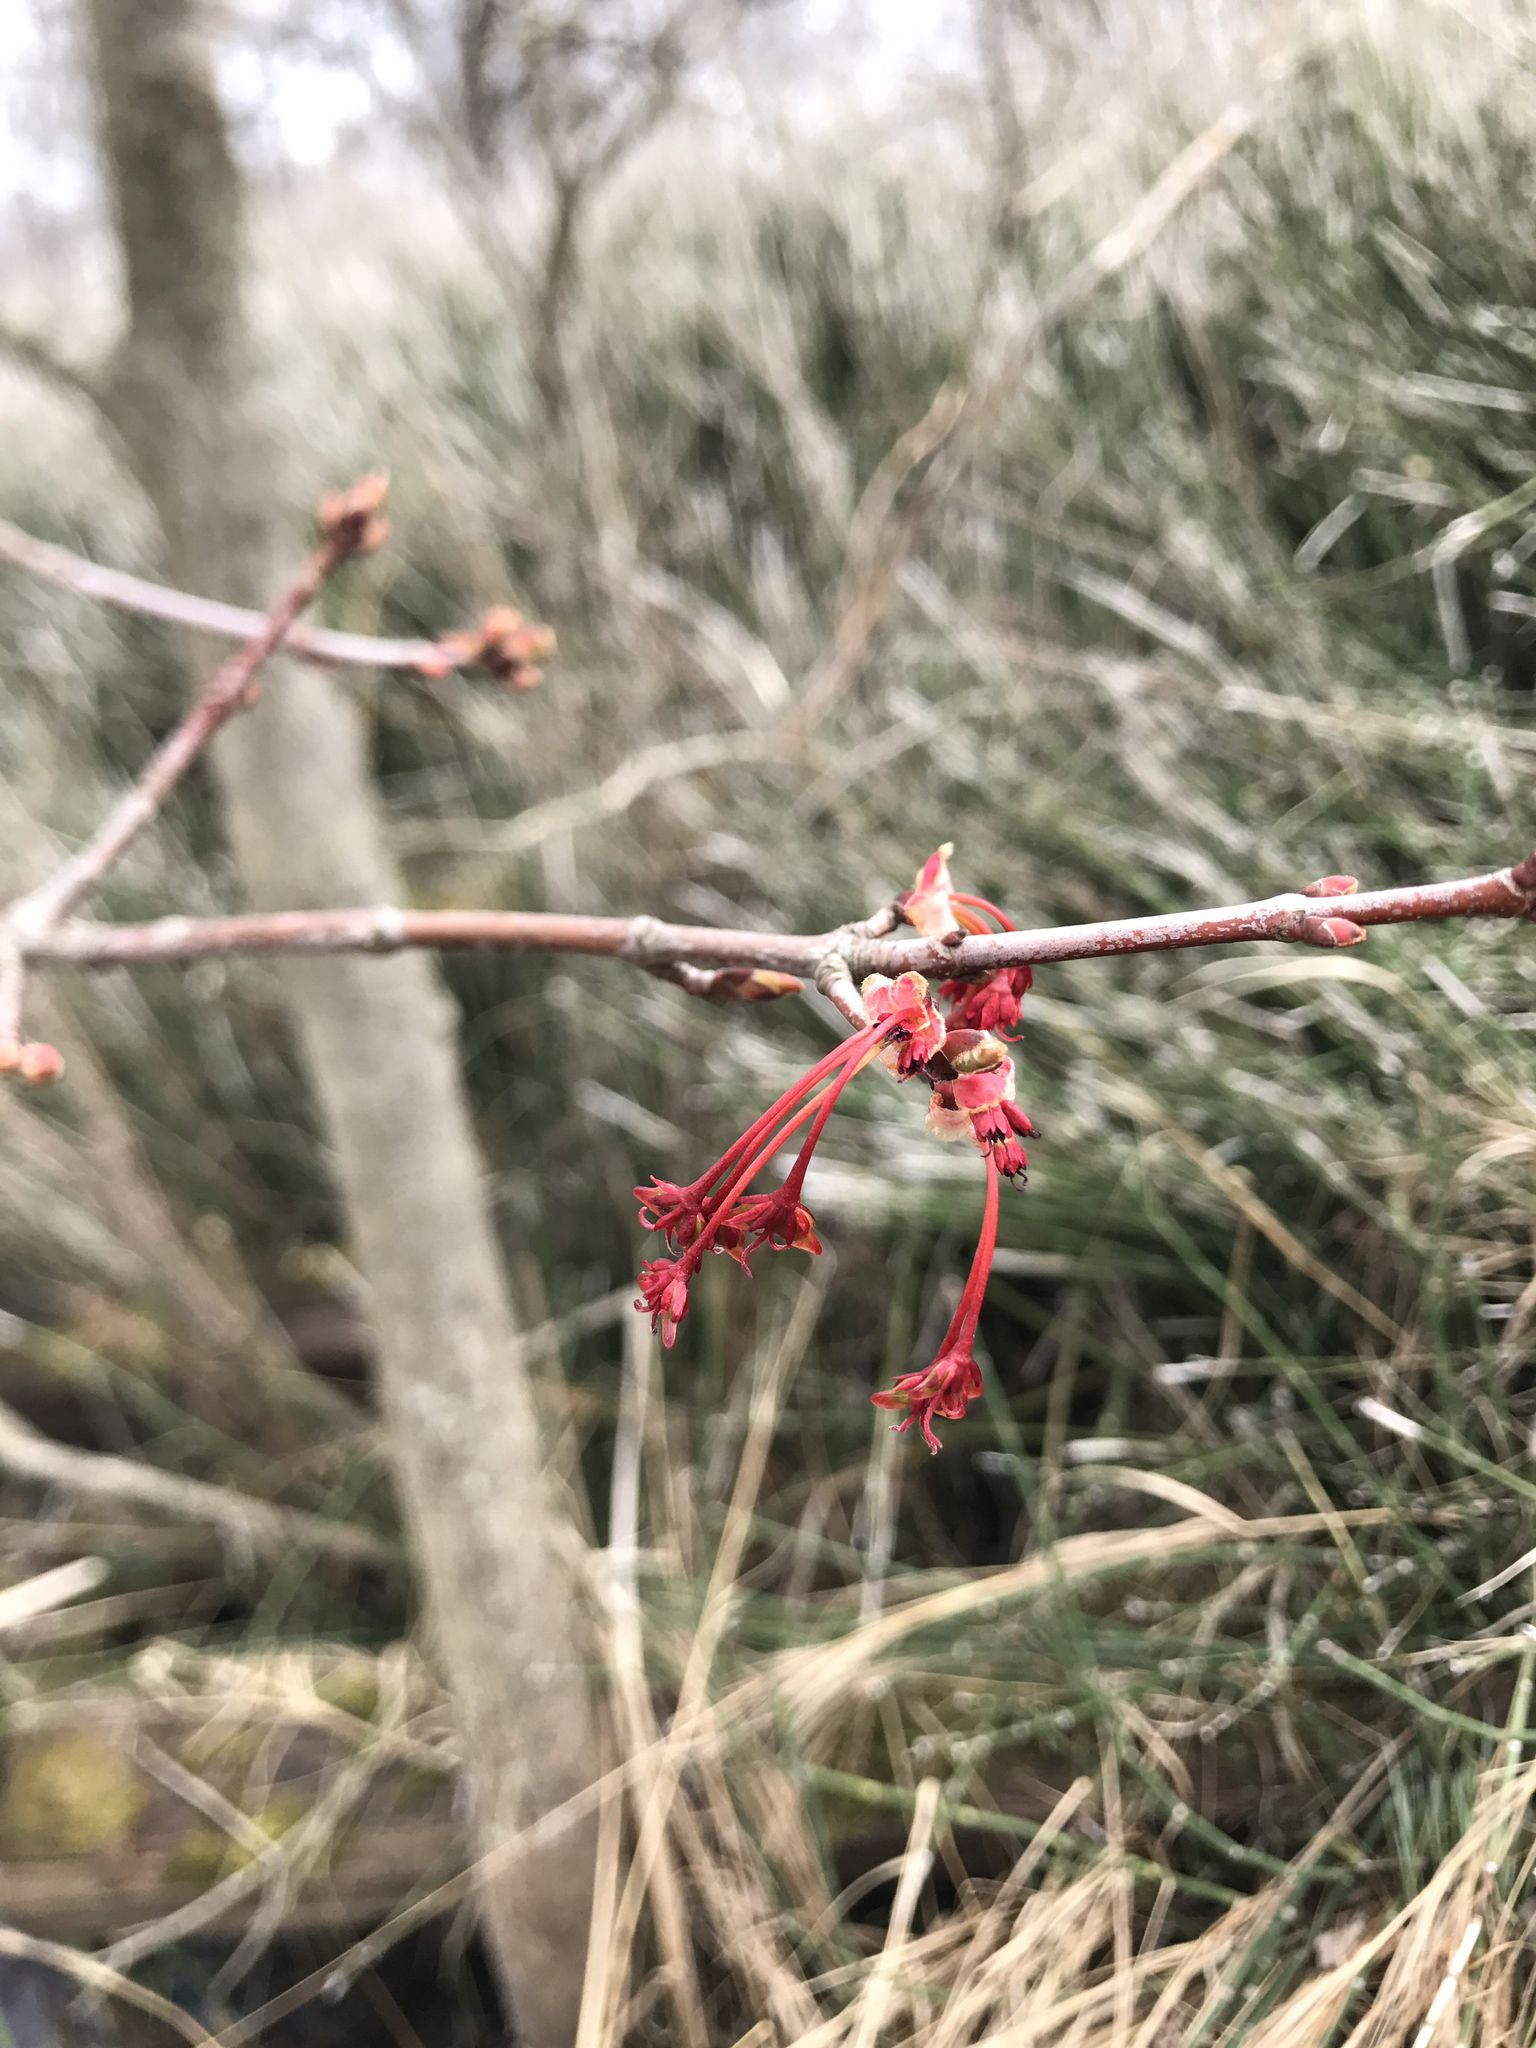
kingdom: Plantae
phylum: Tracheophyta
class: Magnoliopsida
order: Sapindales
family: Sapindaceae
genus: Acer
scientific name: Acer rubrum
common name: Red maple
